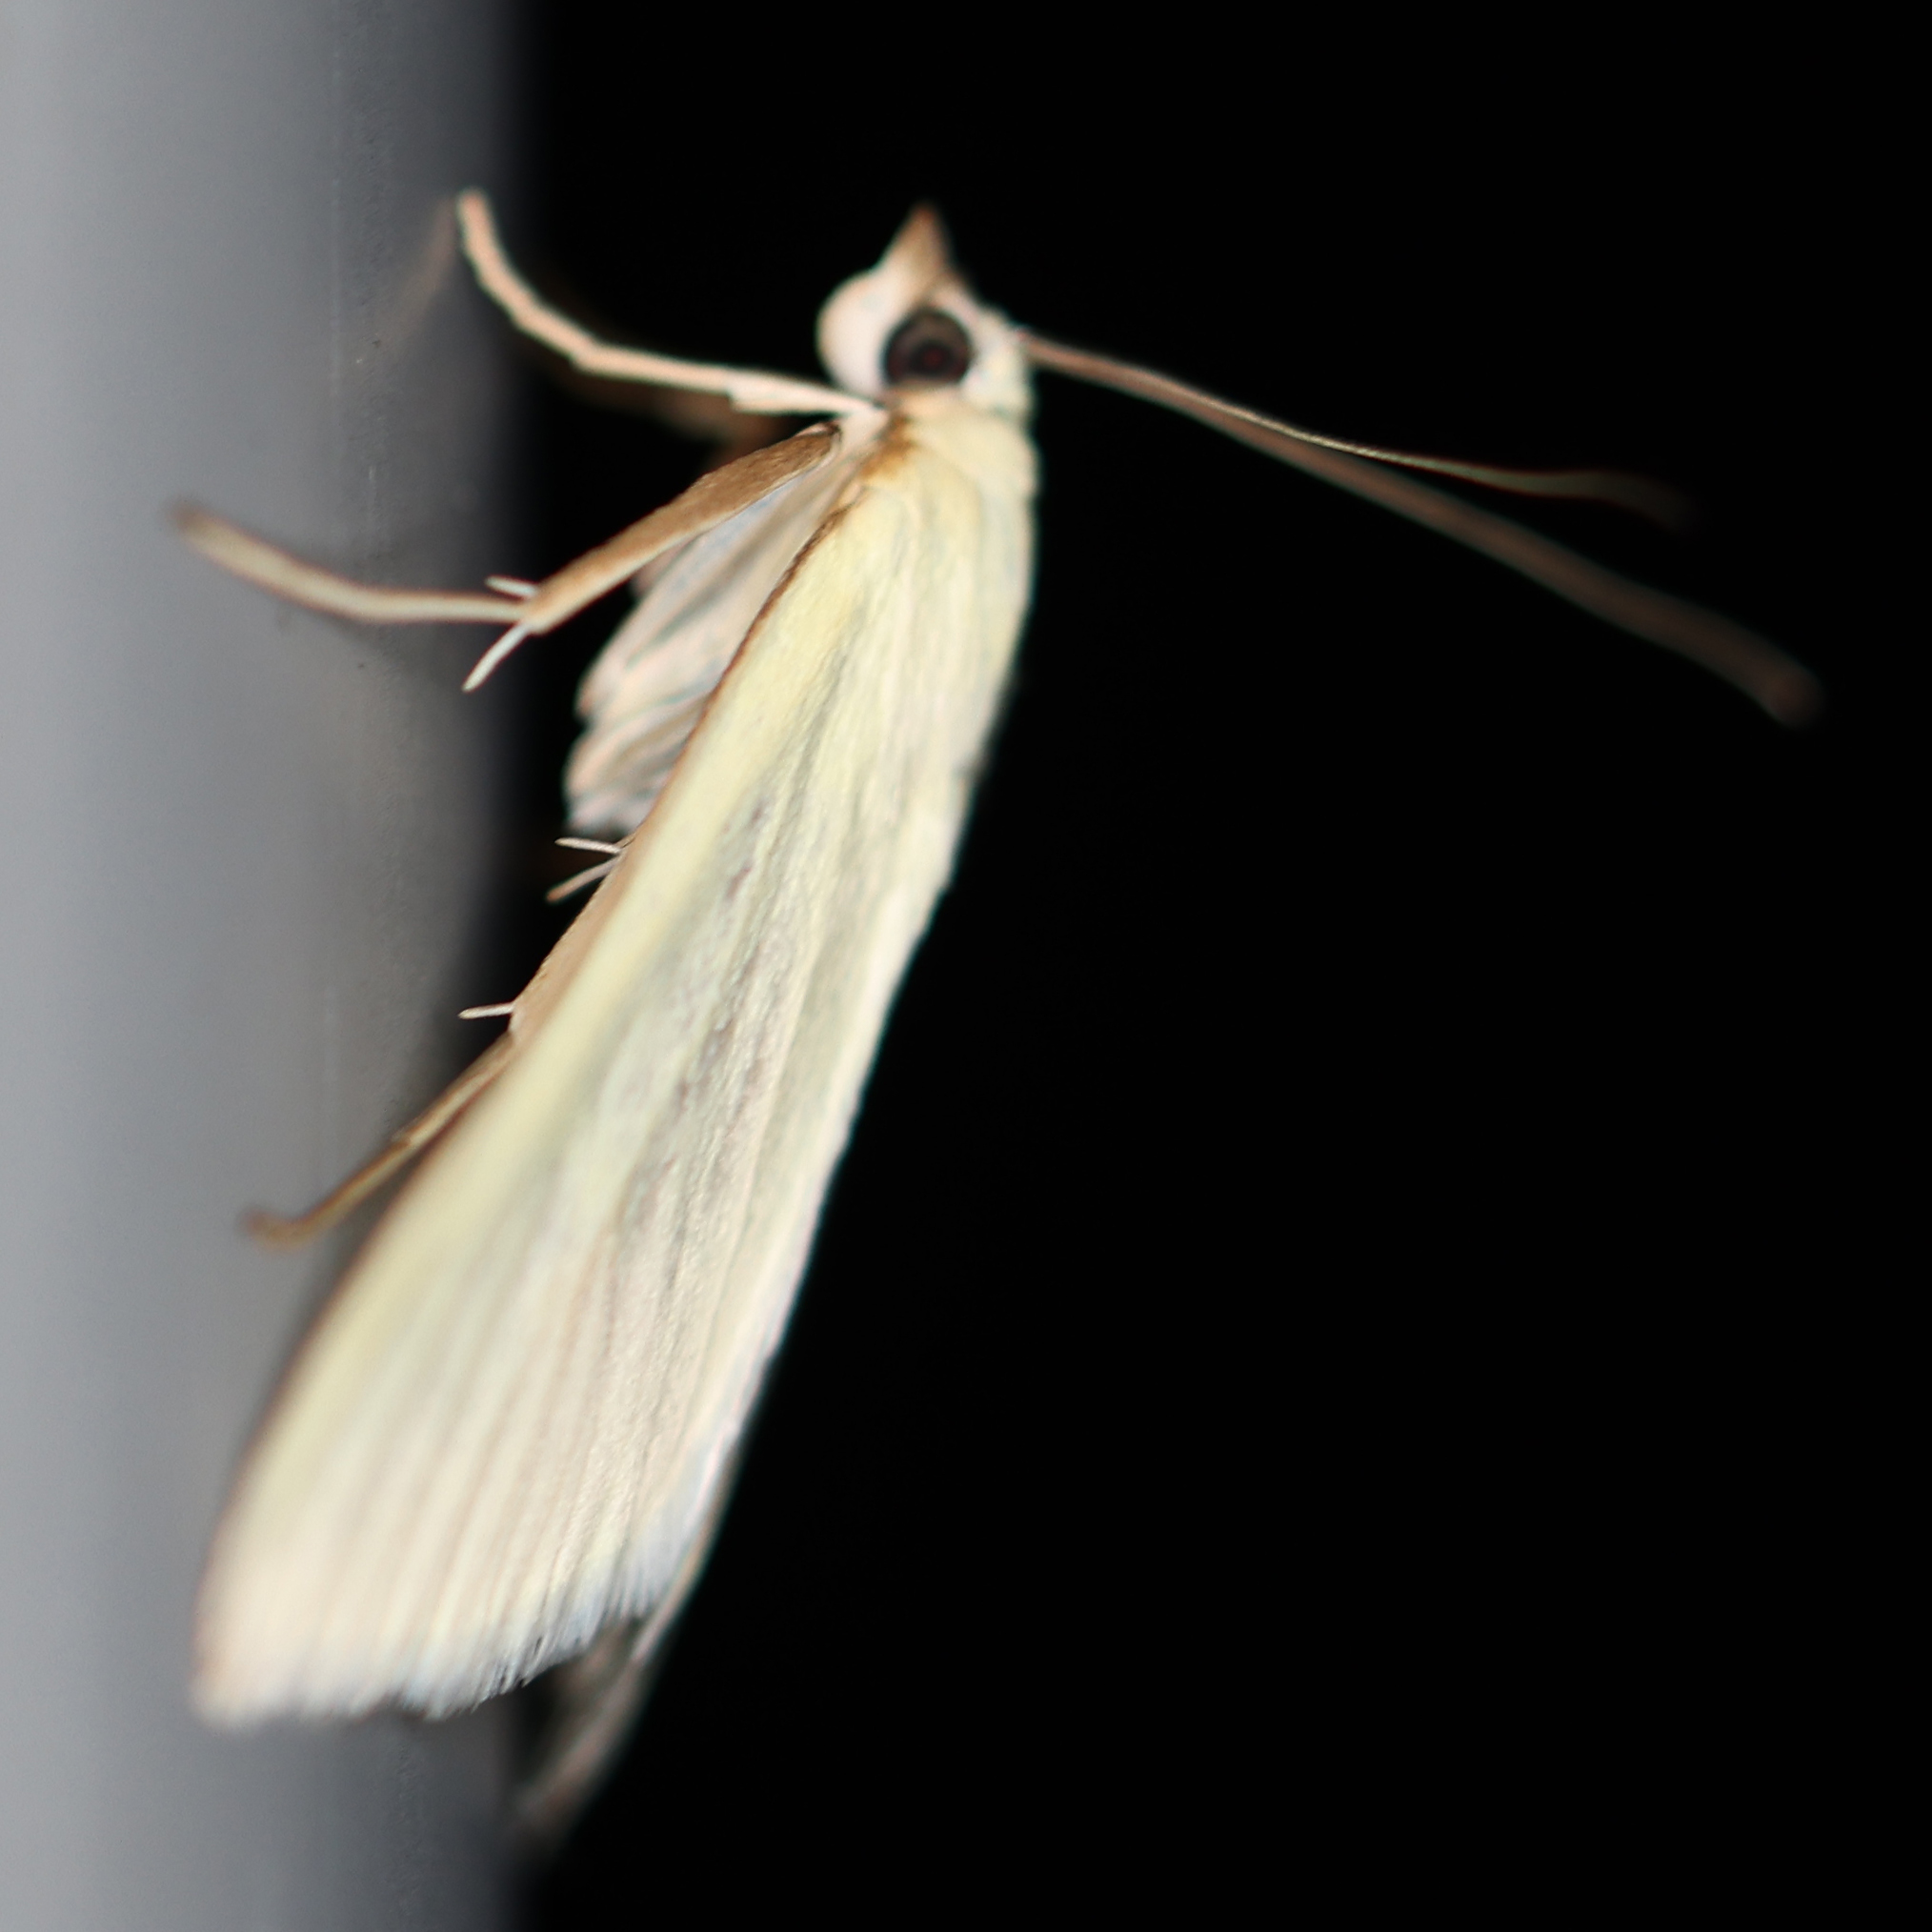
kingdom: Animalia
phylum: Arthropoda
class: Insecta
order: Lepidoptera
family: Crambidae
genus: Sitochroa
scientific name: Sitochroa palealis
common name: Greenish-yellow sitochroa moth
